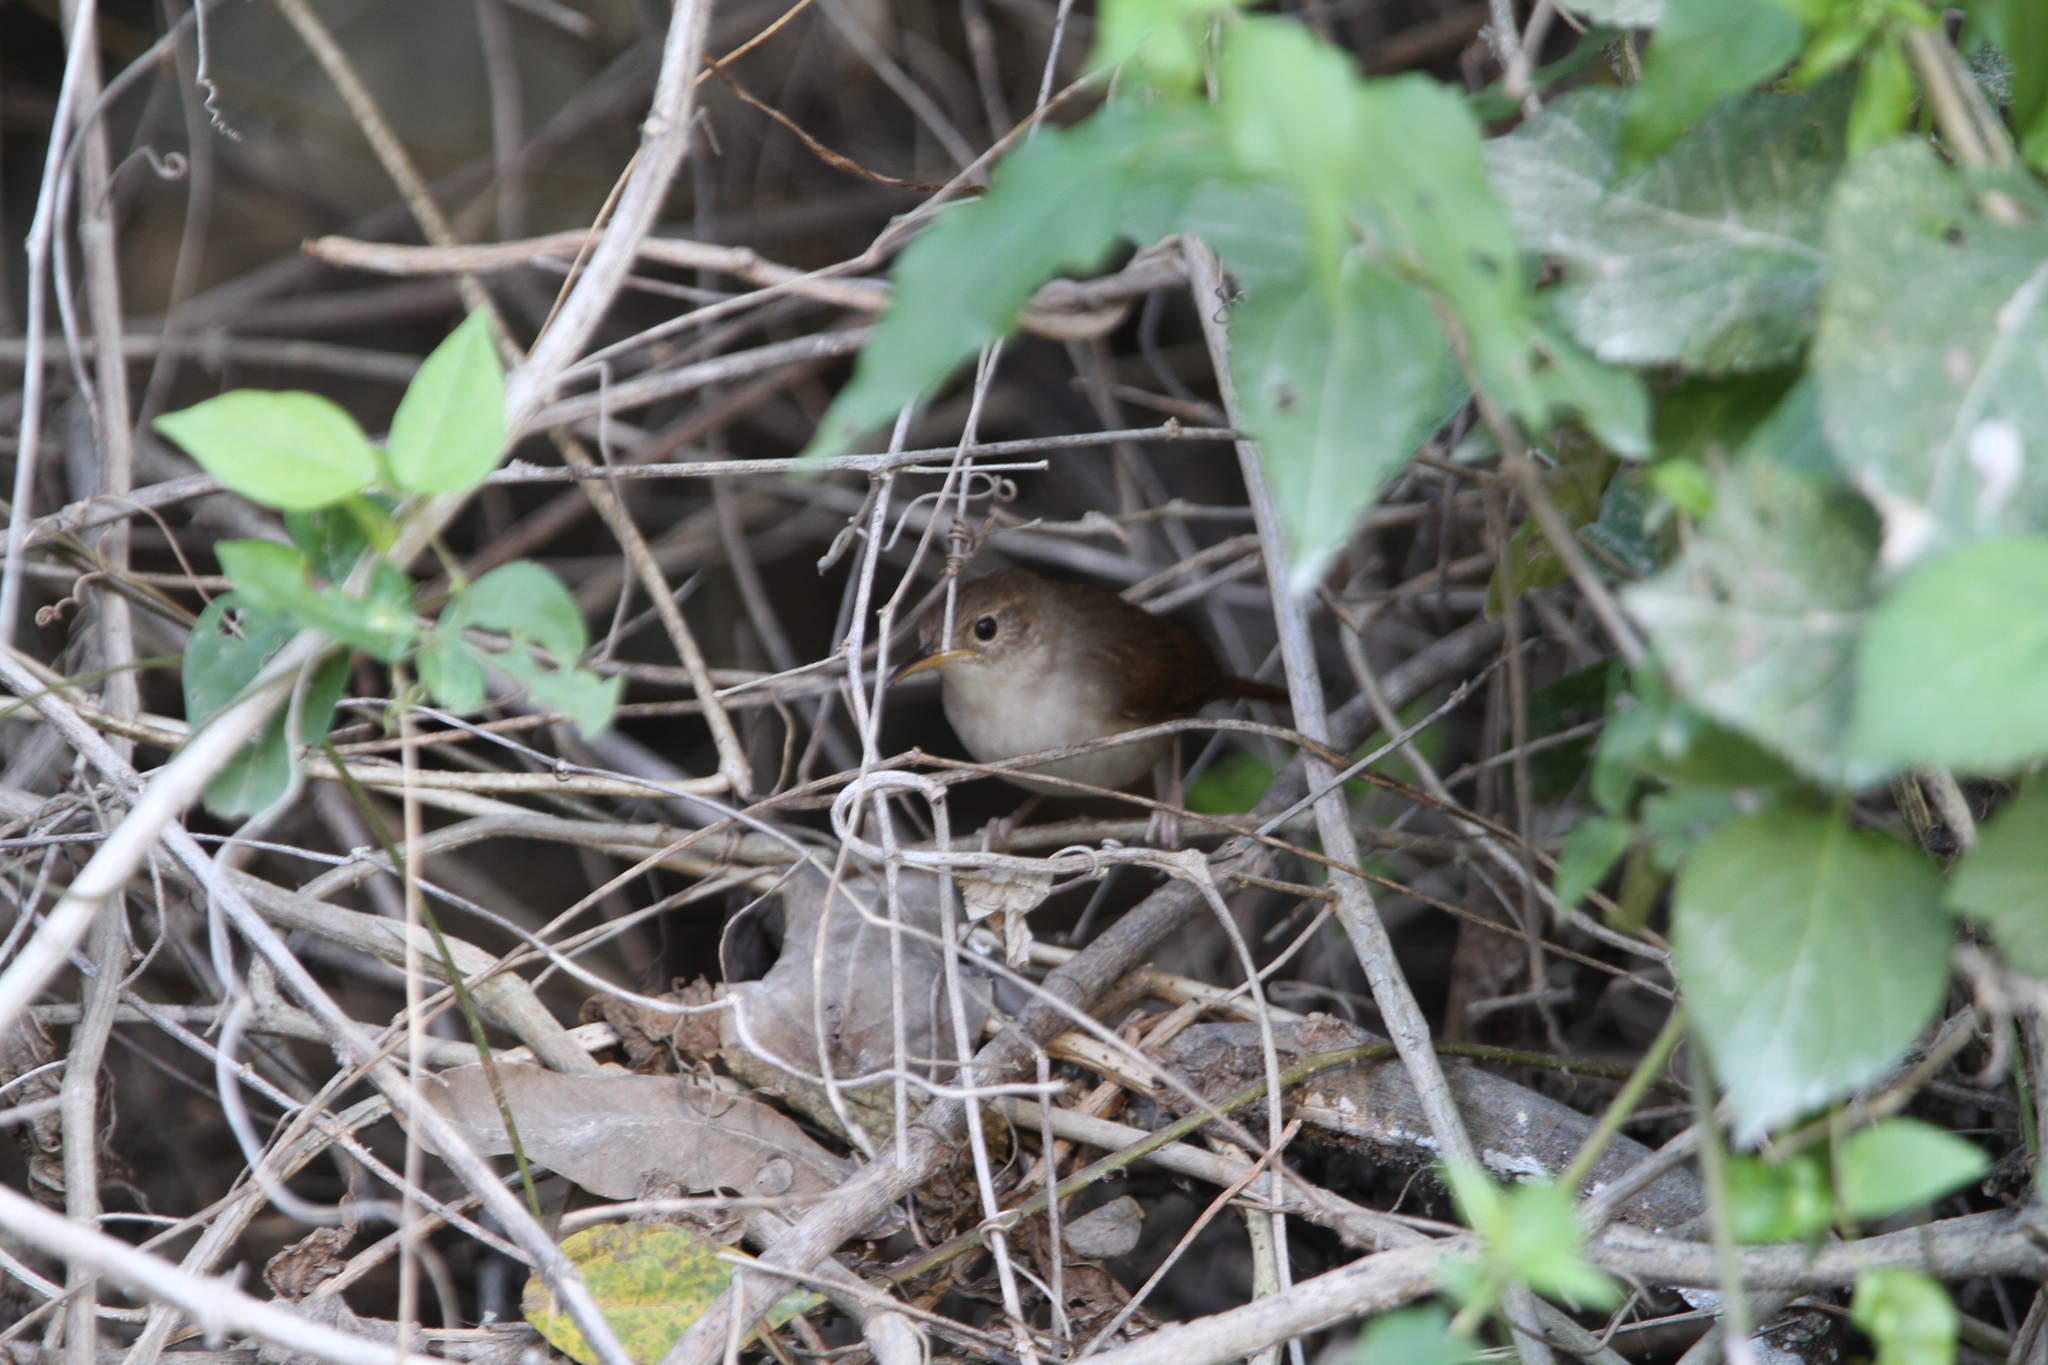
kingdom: Animalia
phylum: Chordata
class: Aves
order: Passeriformes
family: Troglodytidae
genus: Troglodytes
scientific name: Troglodytes aedon
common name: House wren
